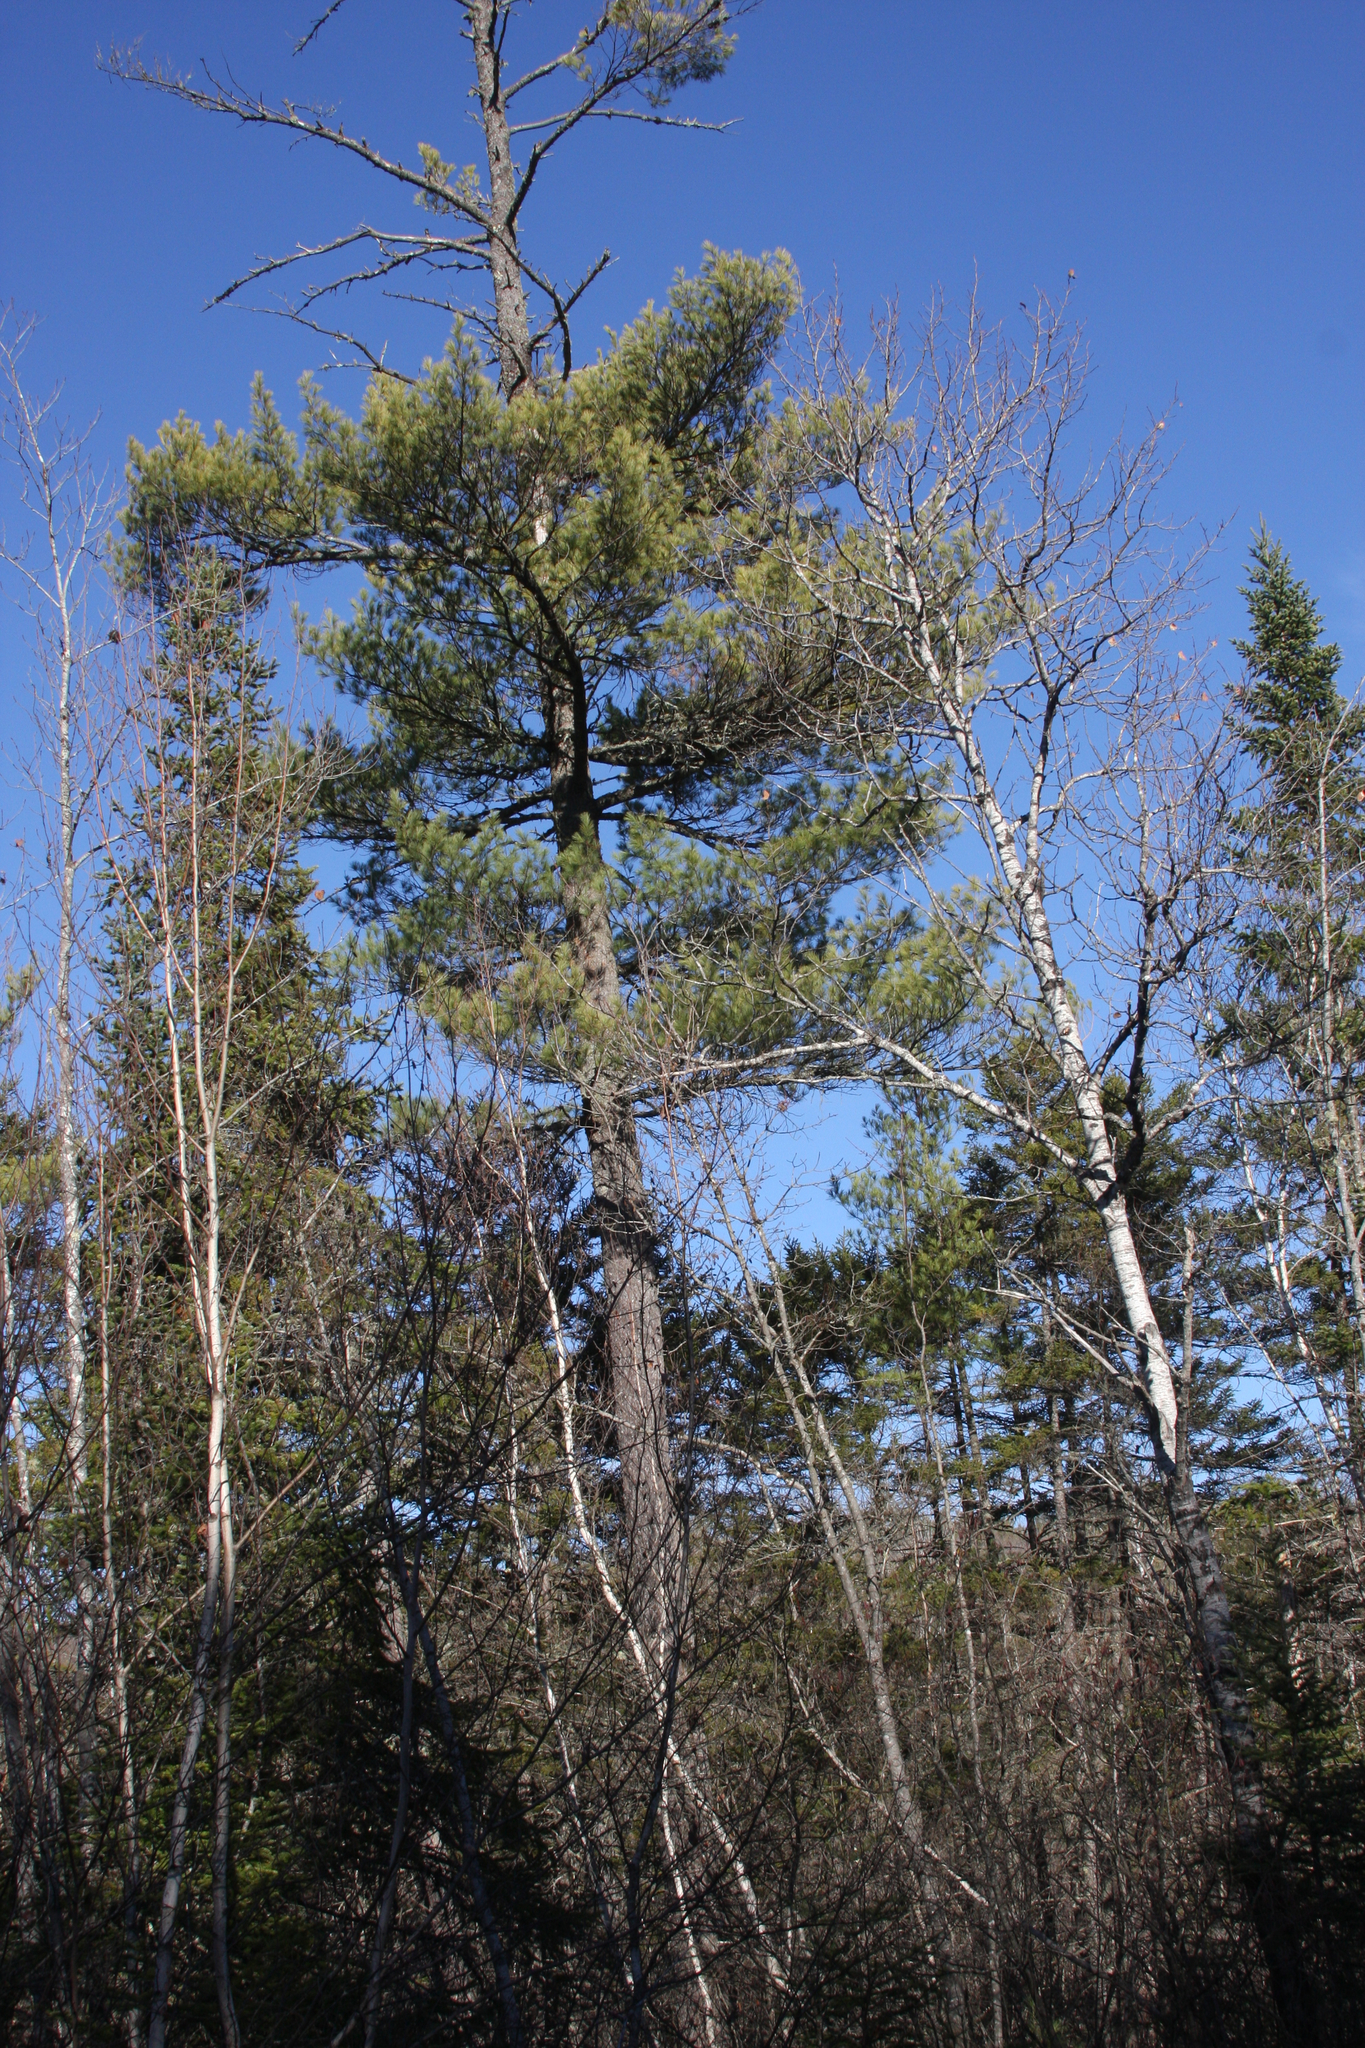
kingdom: Plantae
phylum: Tracheophyta
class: Pinopsida
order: Pinales
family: Pinaceae
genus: Pinus
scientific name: Pinus strobus
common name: Weymouth pine
